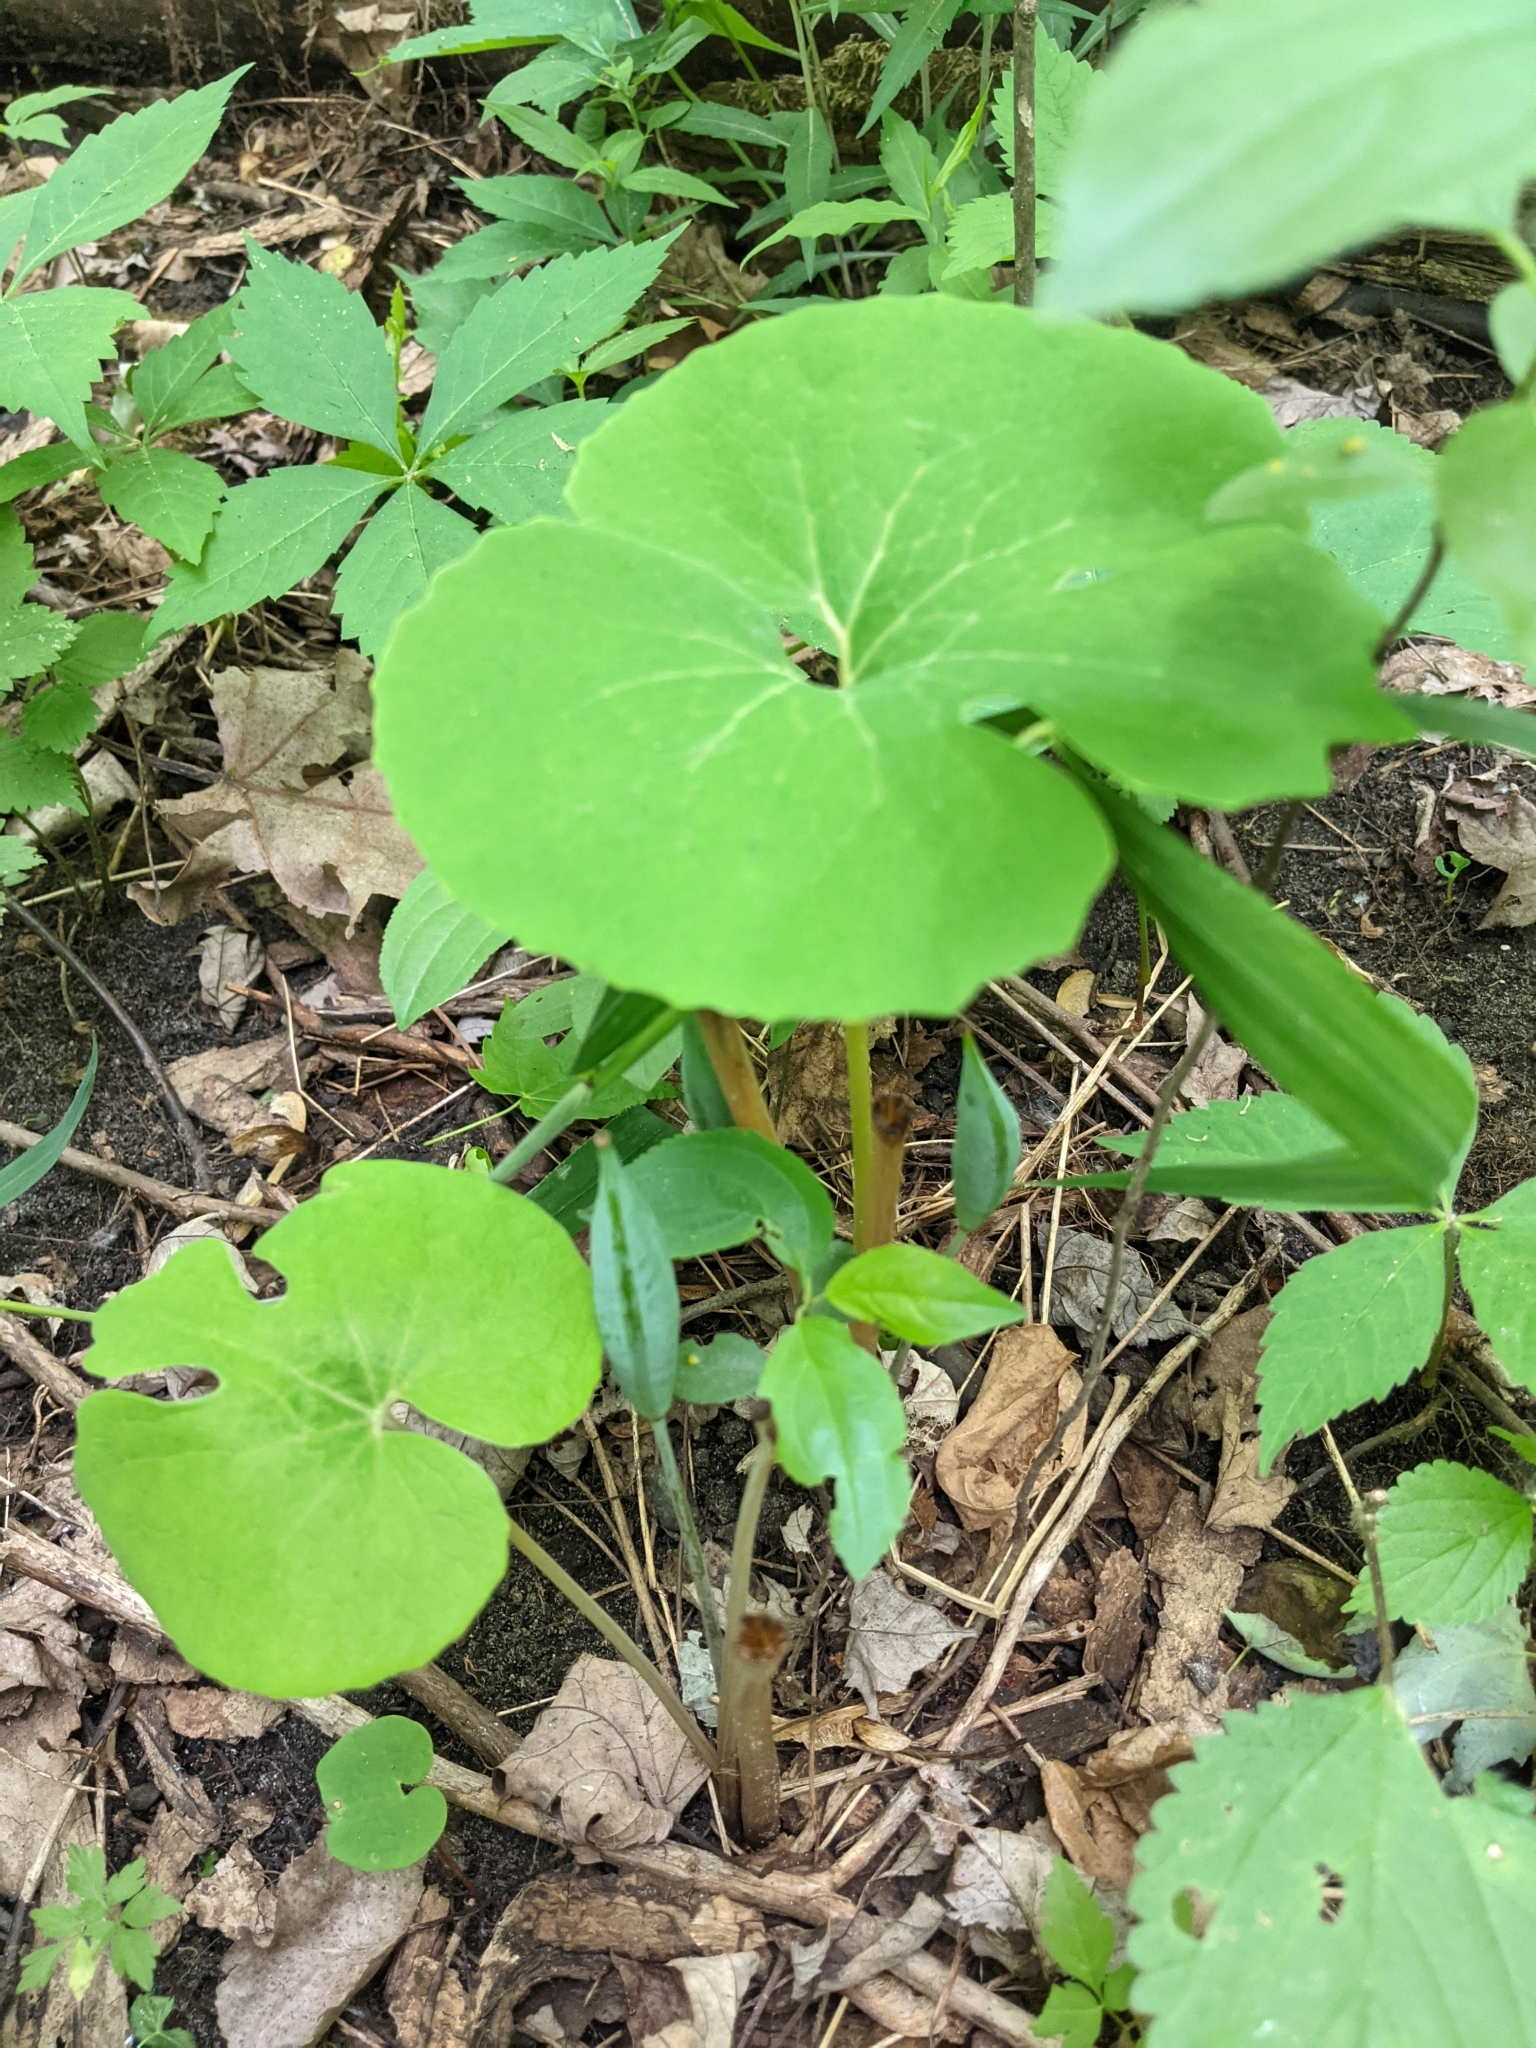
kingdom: Plantae
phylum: Tracheophyta
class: Magnoliopsida
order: Ranunculales
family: Papaveraceae
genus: Sanguinaria
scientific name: Sanguinaria canadensis
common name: Bloodroot
